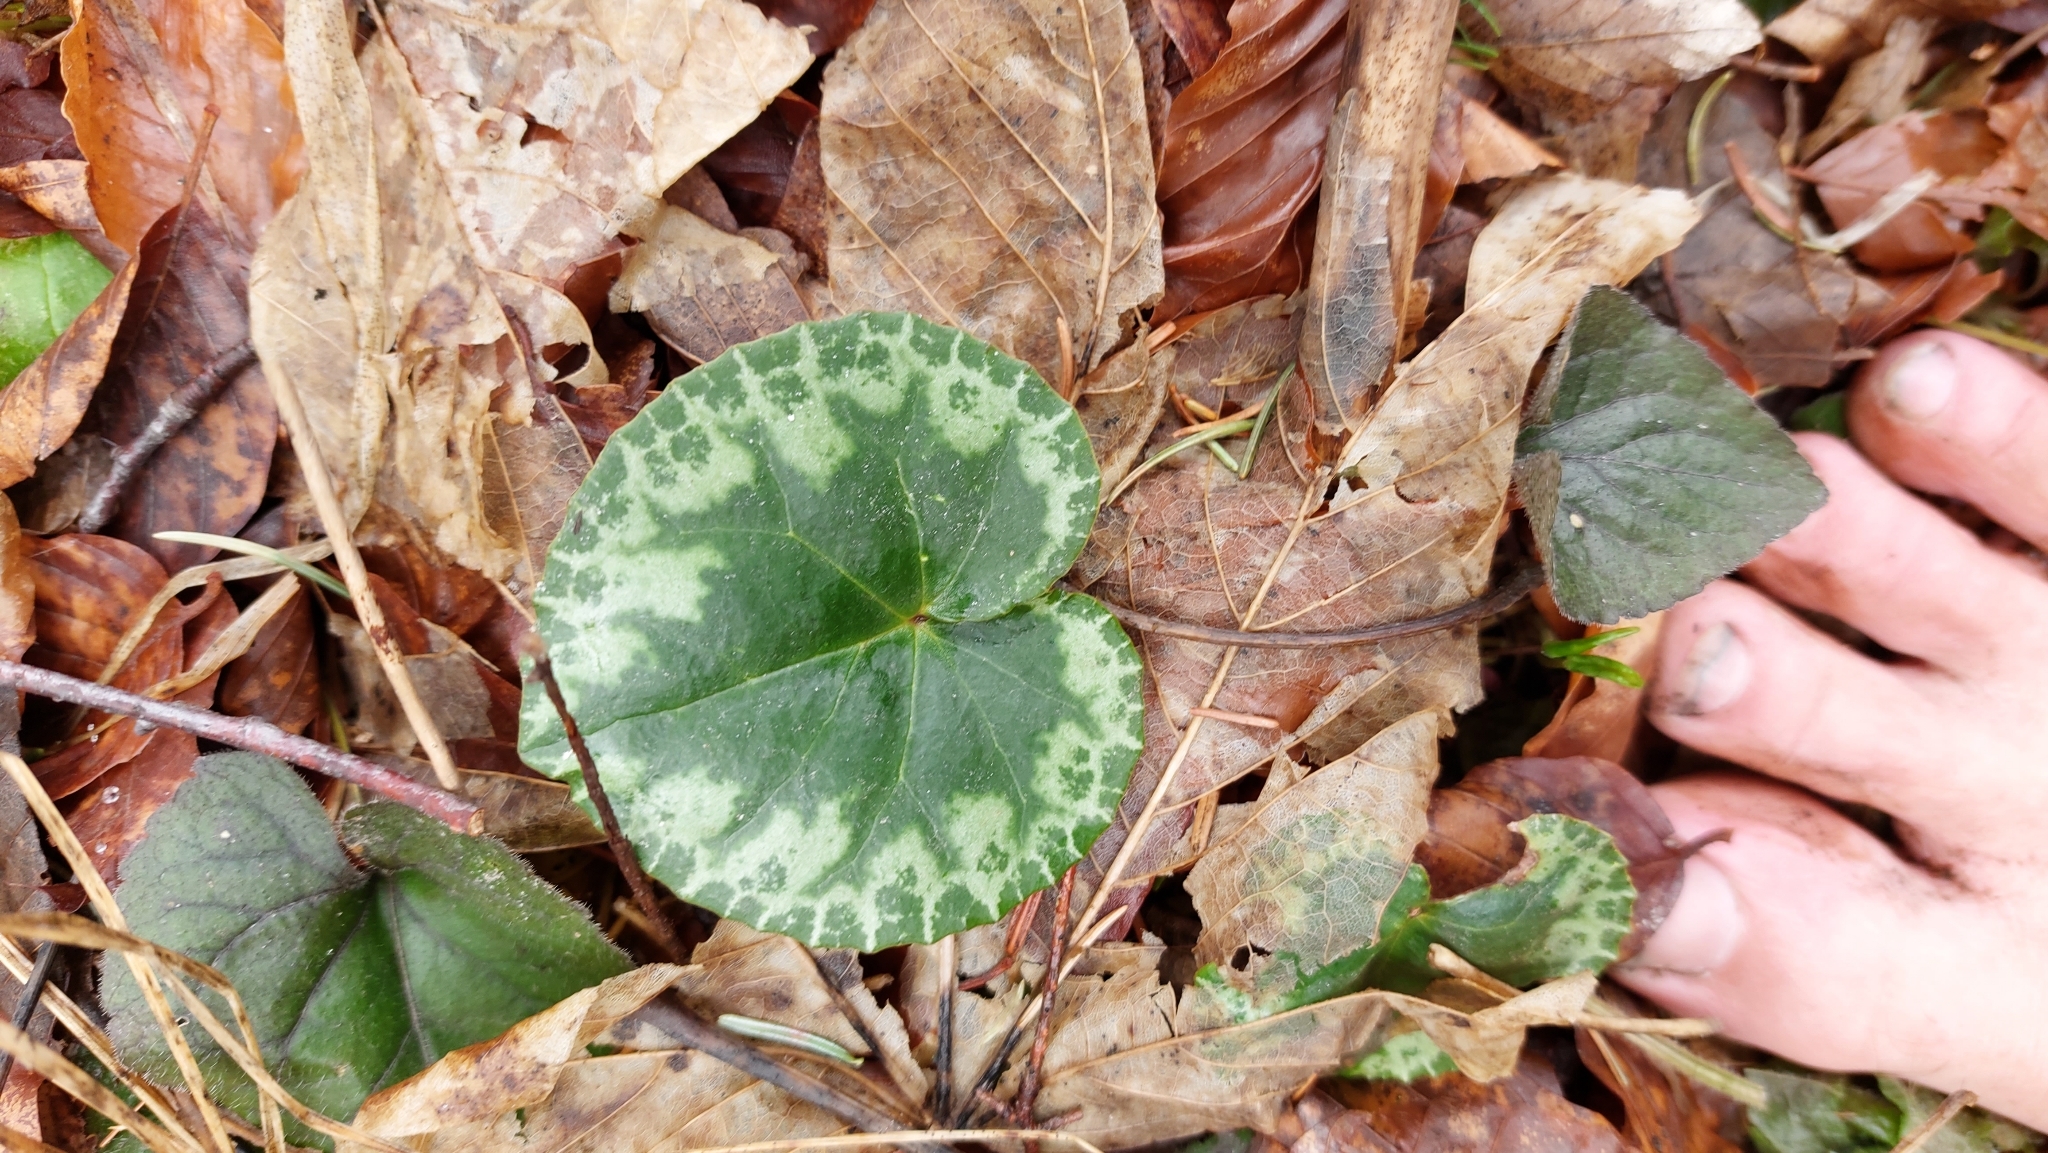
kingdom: Plantae
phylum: Tracheophyta
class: Magnoliopsida
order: Ericales
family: Primulaceae
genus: Cyclamen
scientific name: Cyclamen purpurascens
